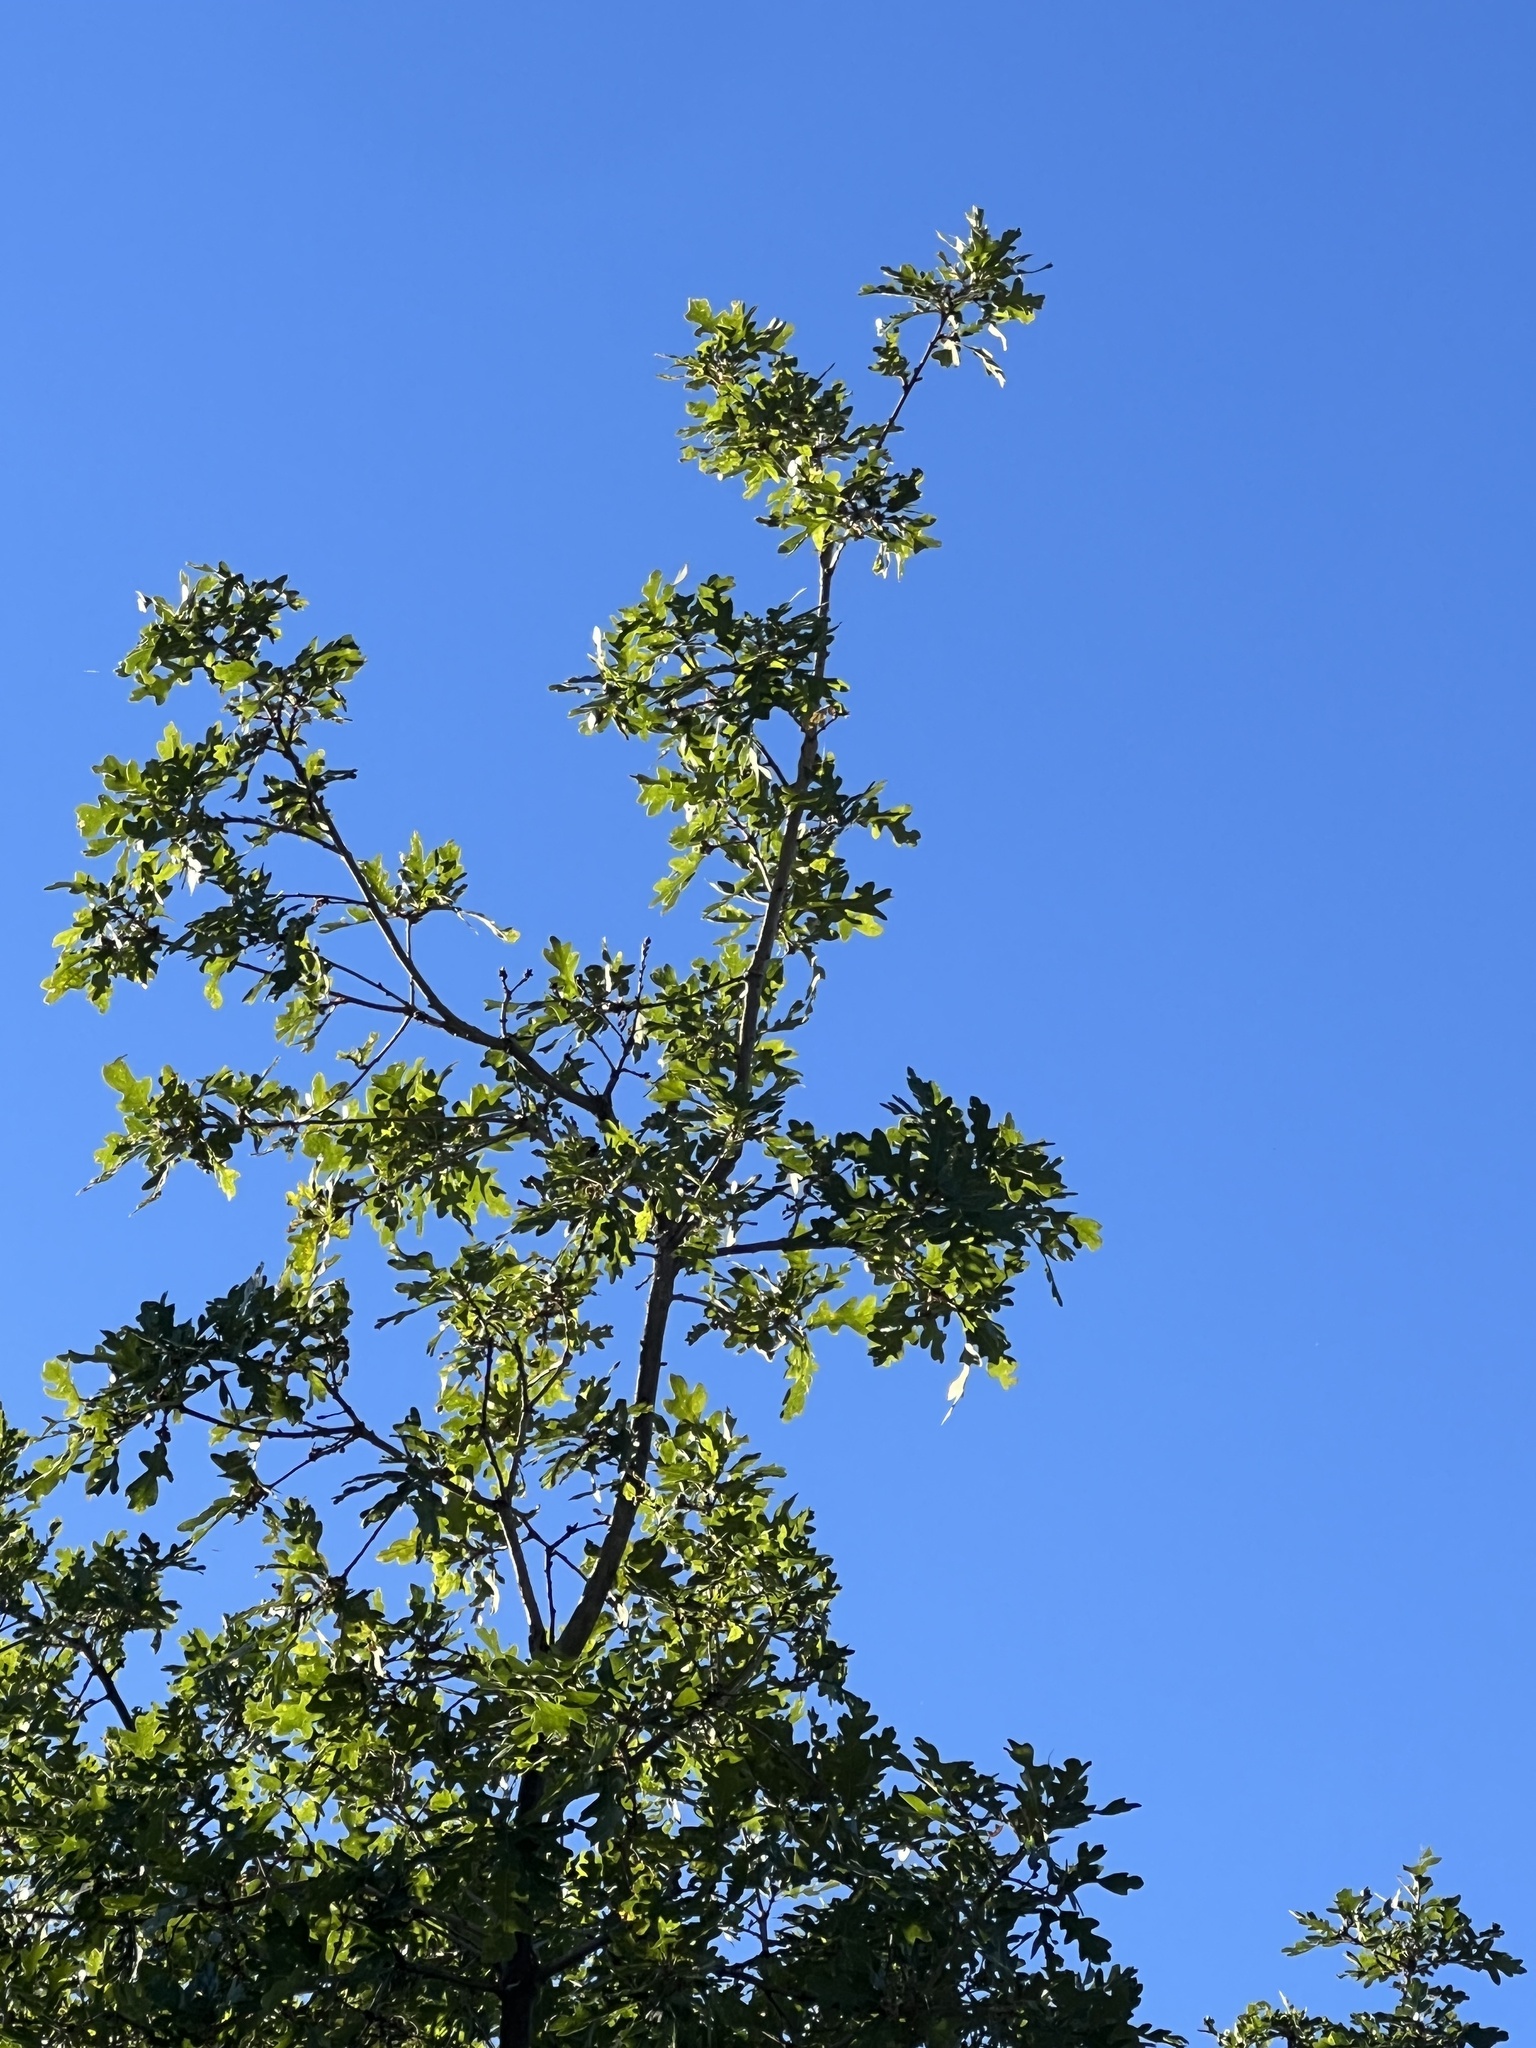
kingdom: Plantae
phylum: Tracheophyta
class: Magnoliopsida
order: Fagales
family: Fagaceae
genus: Quercus
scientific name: Quercus gambelii
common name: Gambel oak
